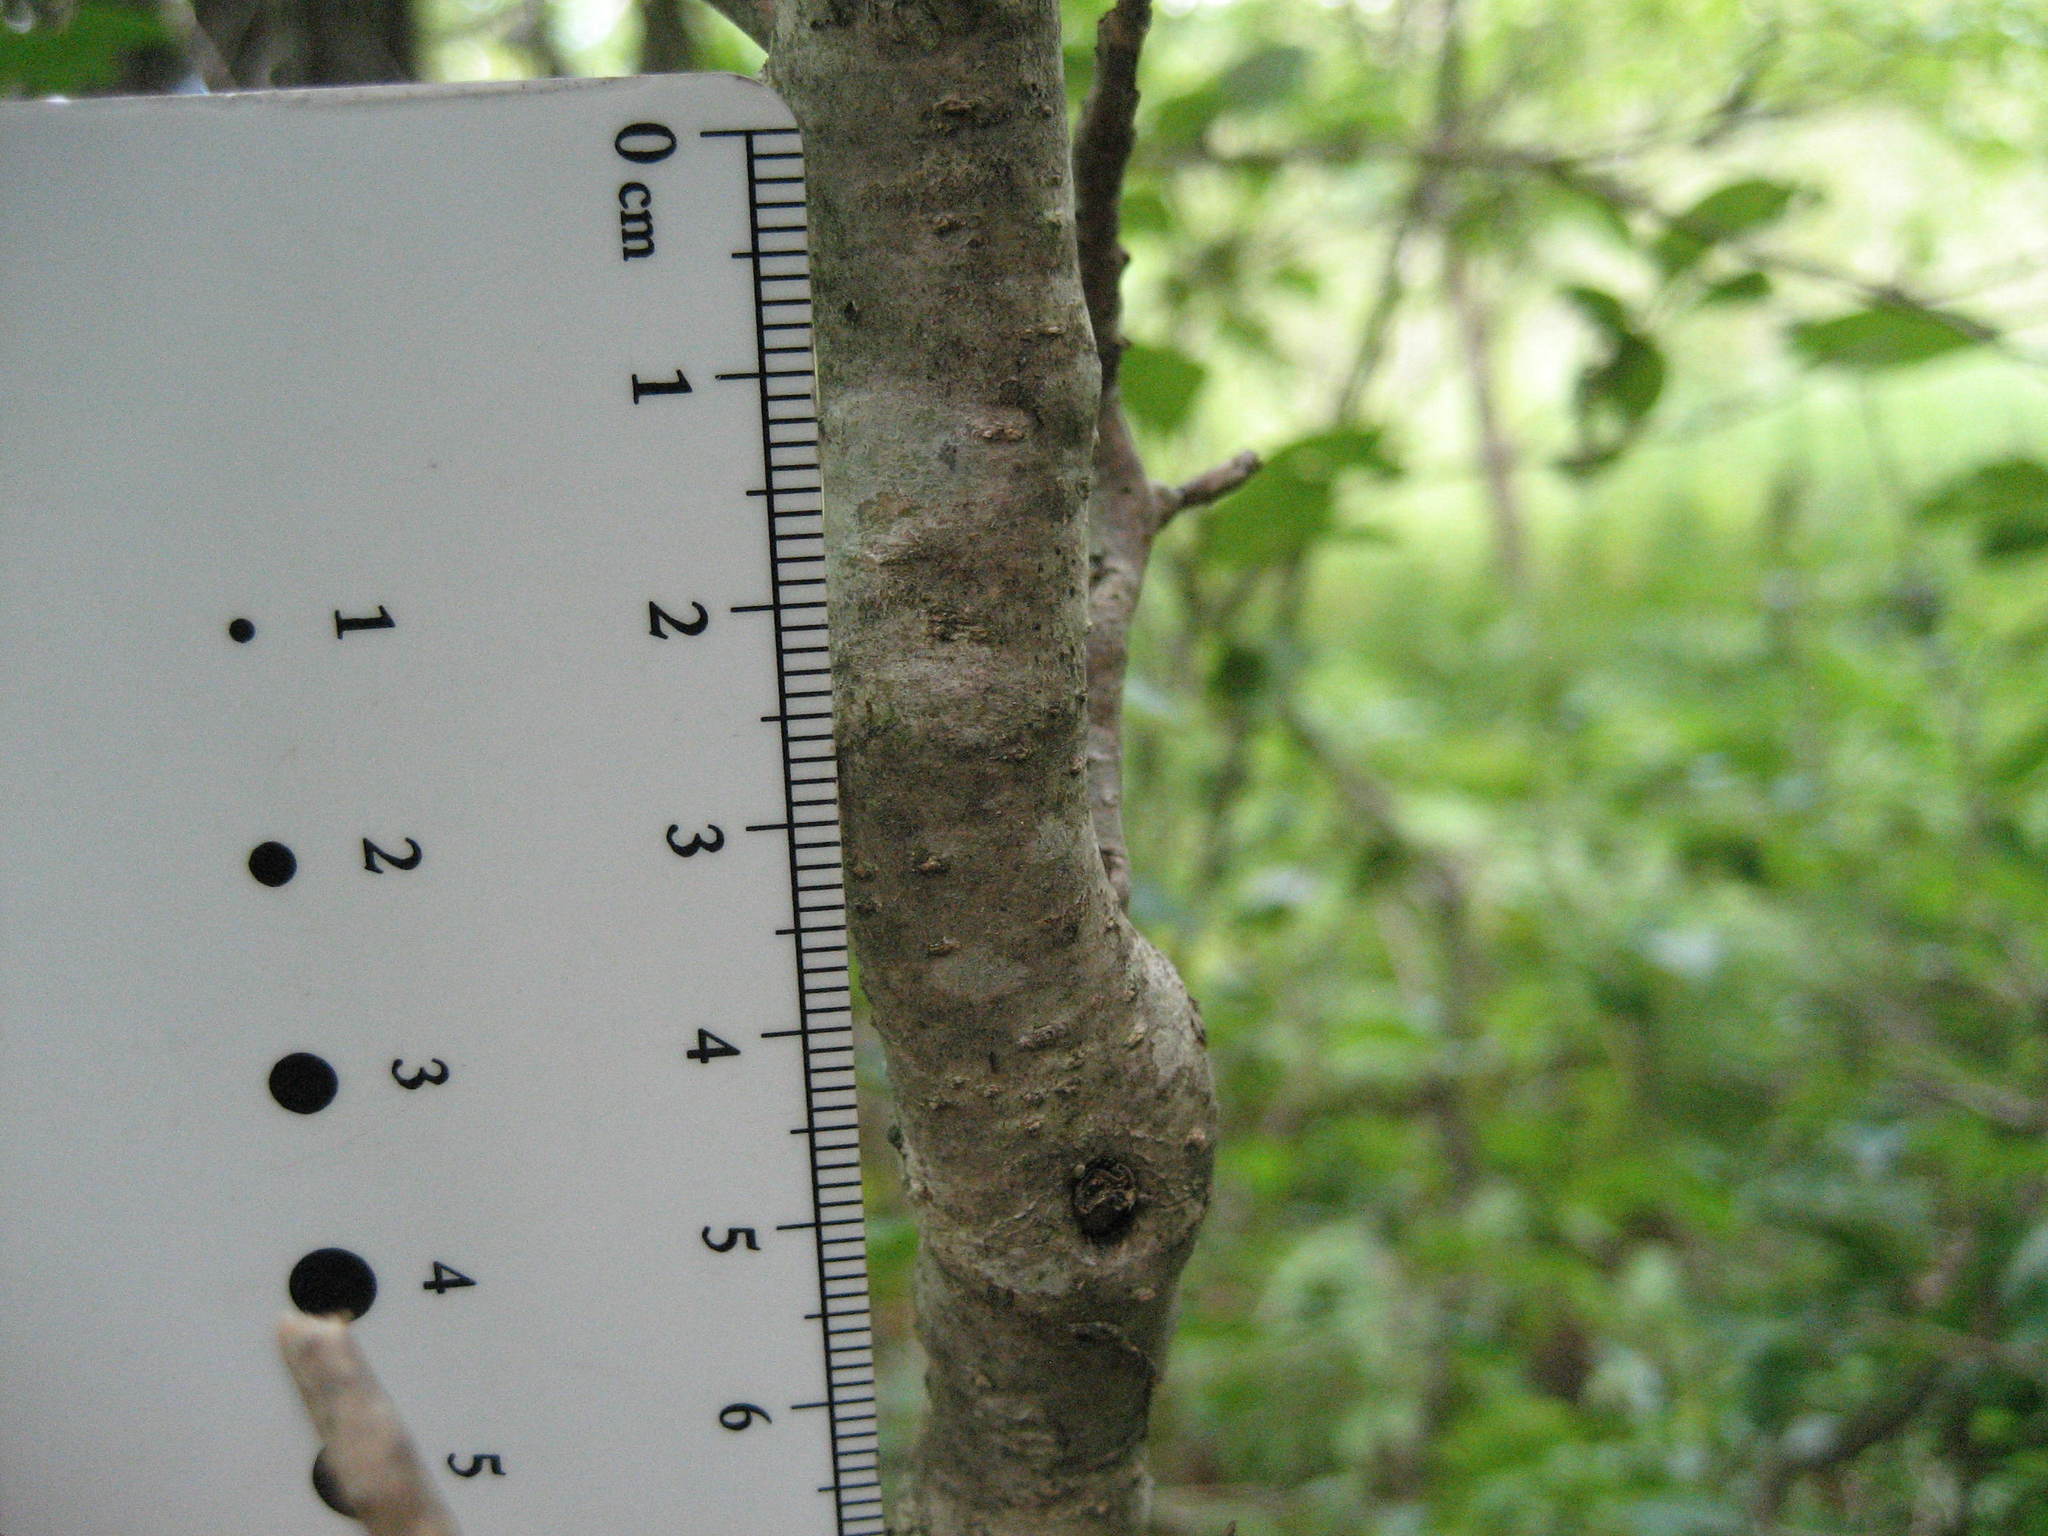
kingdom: Plantae
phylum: Tracheophyta
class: Magnoliopsida
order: Aquifoliales
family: Aquifoliaceae
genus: Ilex
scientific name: Ilex verticillata
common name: Virginia winterberry
